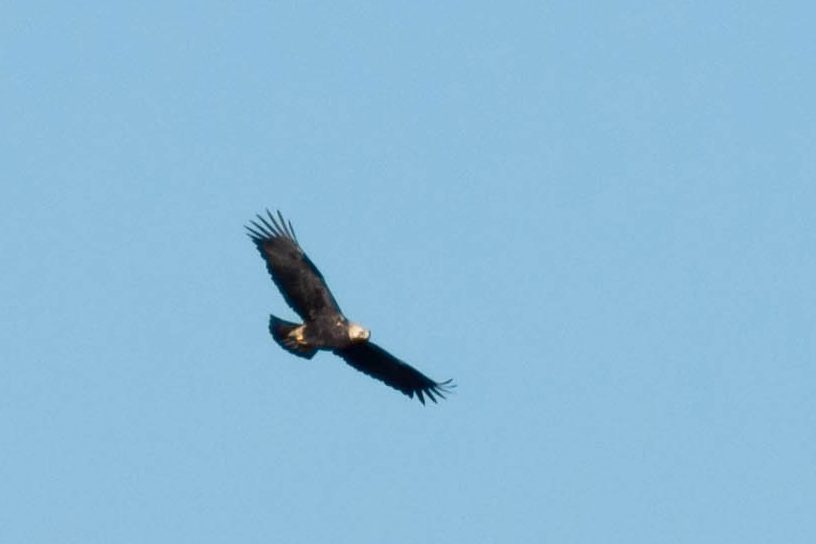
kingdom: Animalia
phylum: Chordata
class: Aves
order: Accipitriformes
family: Accipitridae
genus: Aquila
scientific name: Aquila heliaca
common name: Eastern imperial eagle
